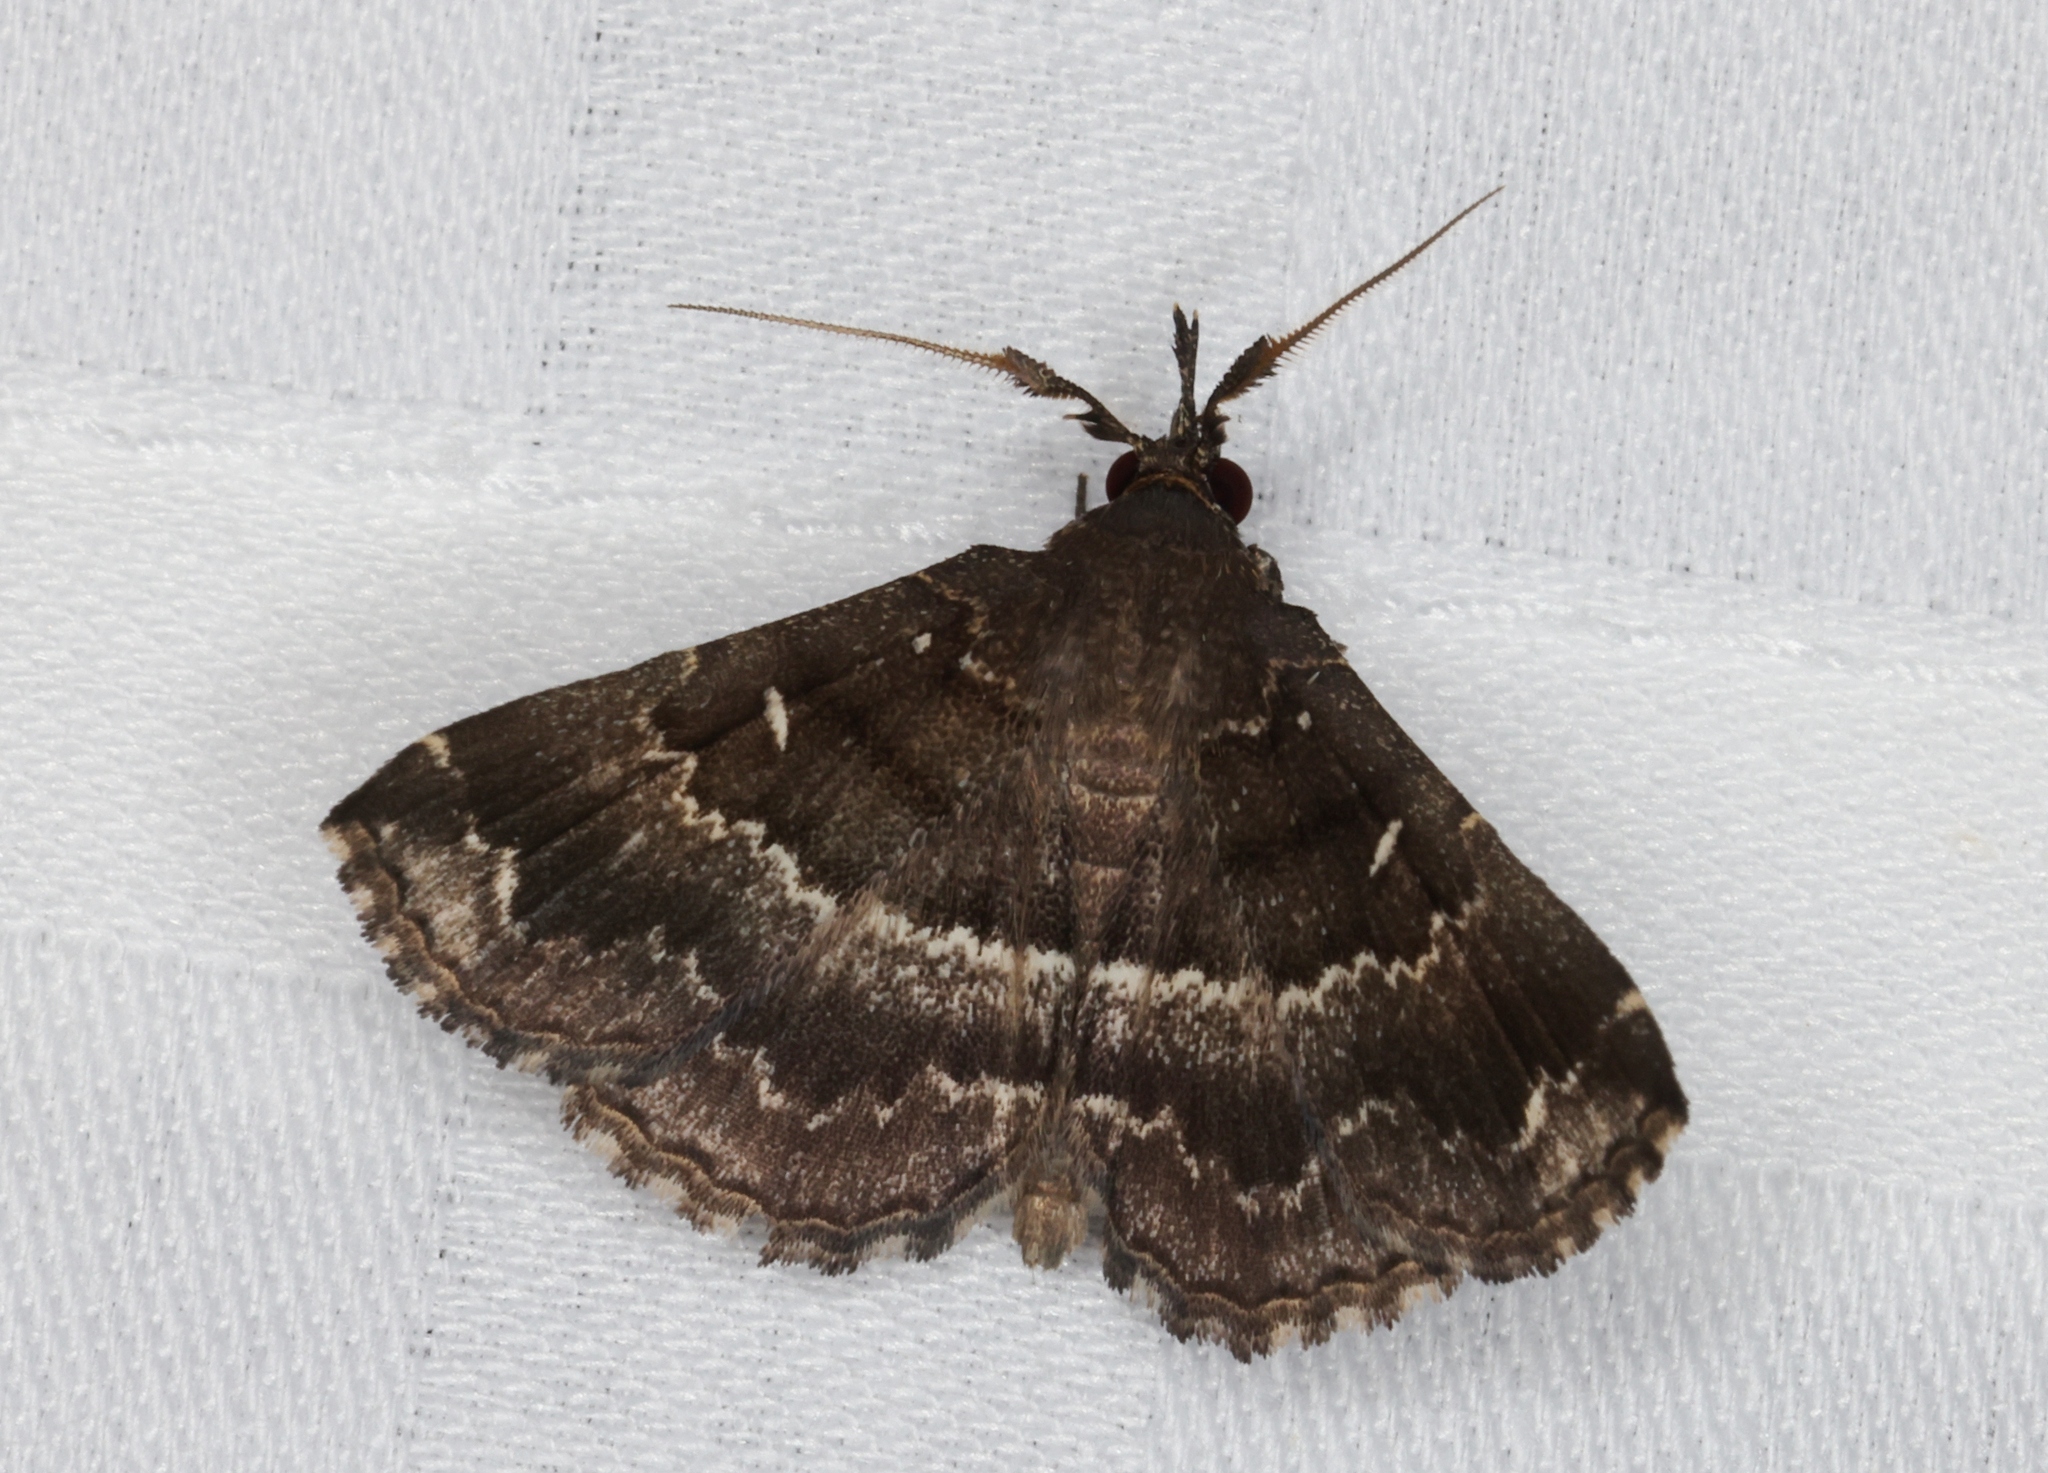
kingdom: Animalia
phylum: Arthropoda
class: Insecta
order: Lepidoptera
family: Erebidae
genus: Adrapsa
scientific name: Adrapsa mediana
